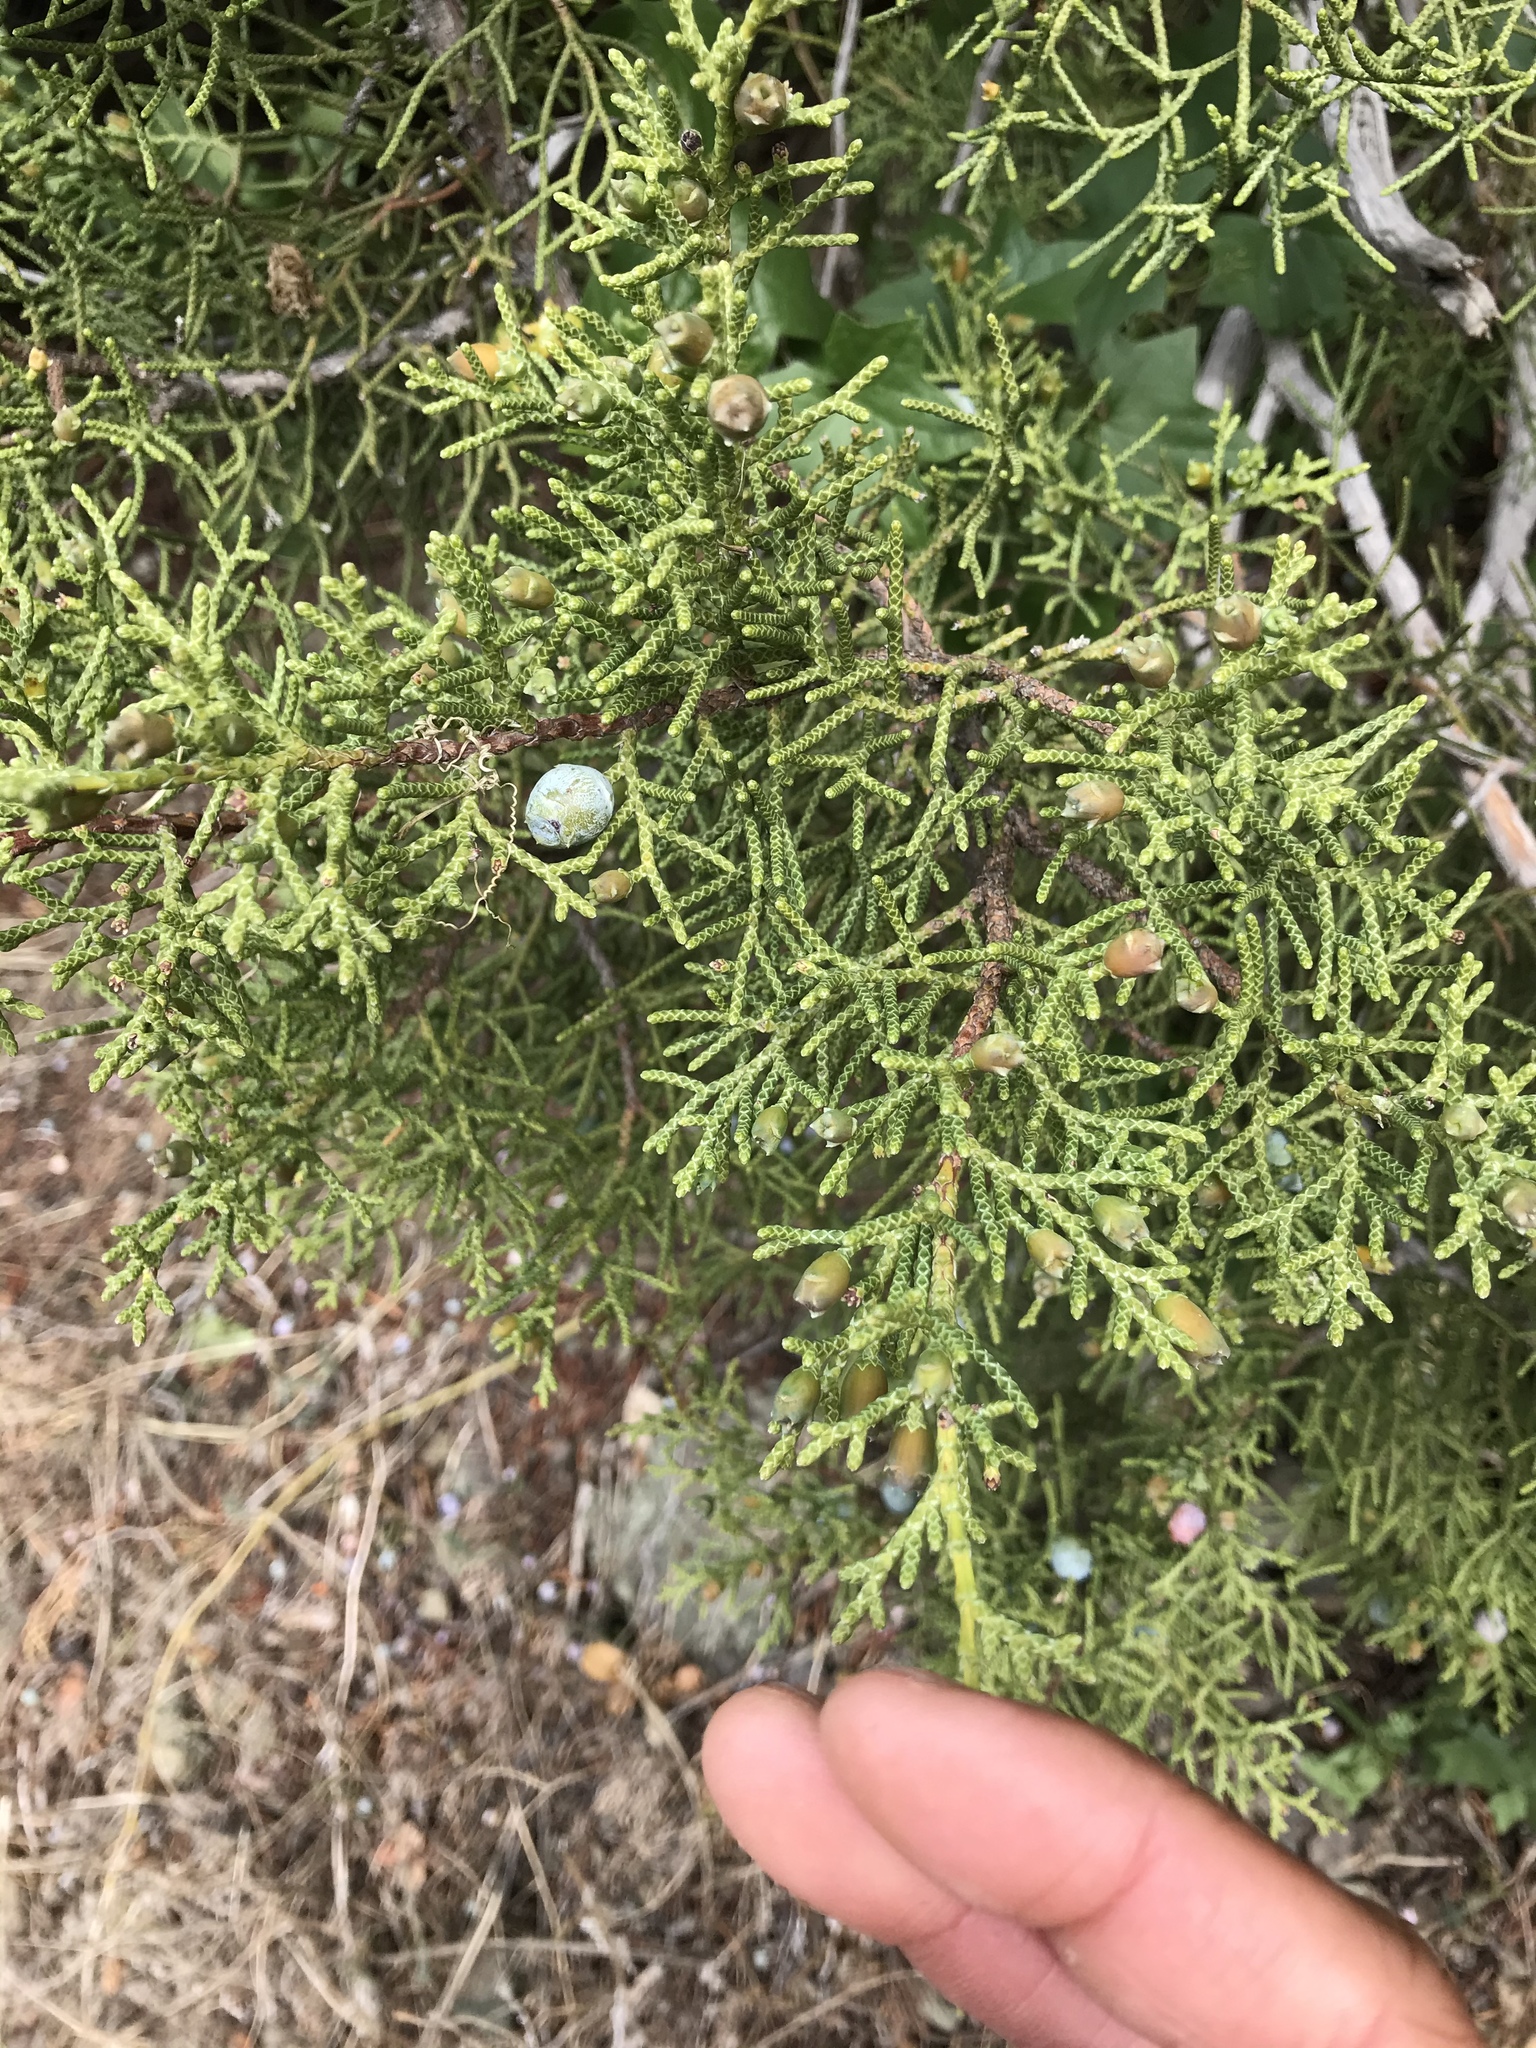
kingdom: Plantae
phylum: Tracheophyta
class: Pinopsida
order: Pinales
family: Cupressaceae
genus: Juniperus
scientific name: Juniperus californica
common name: California juniper
